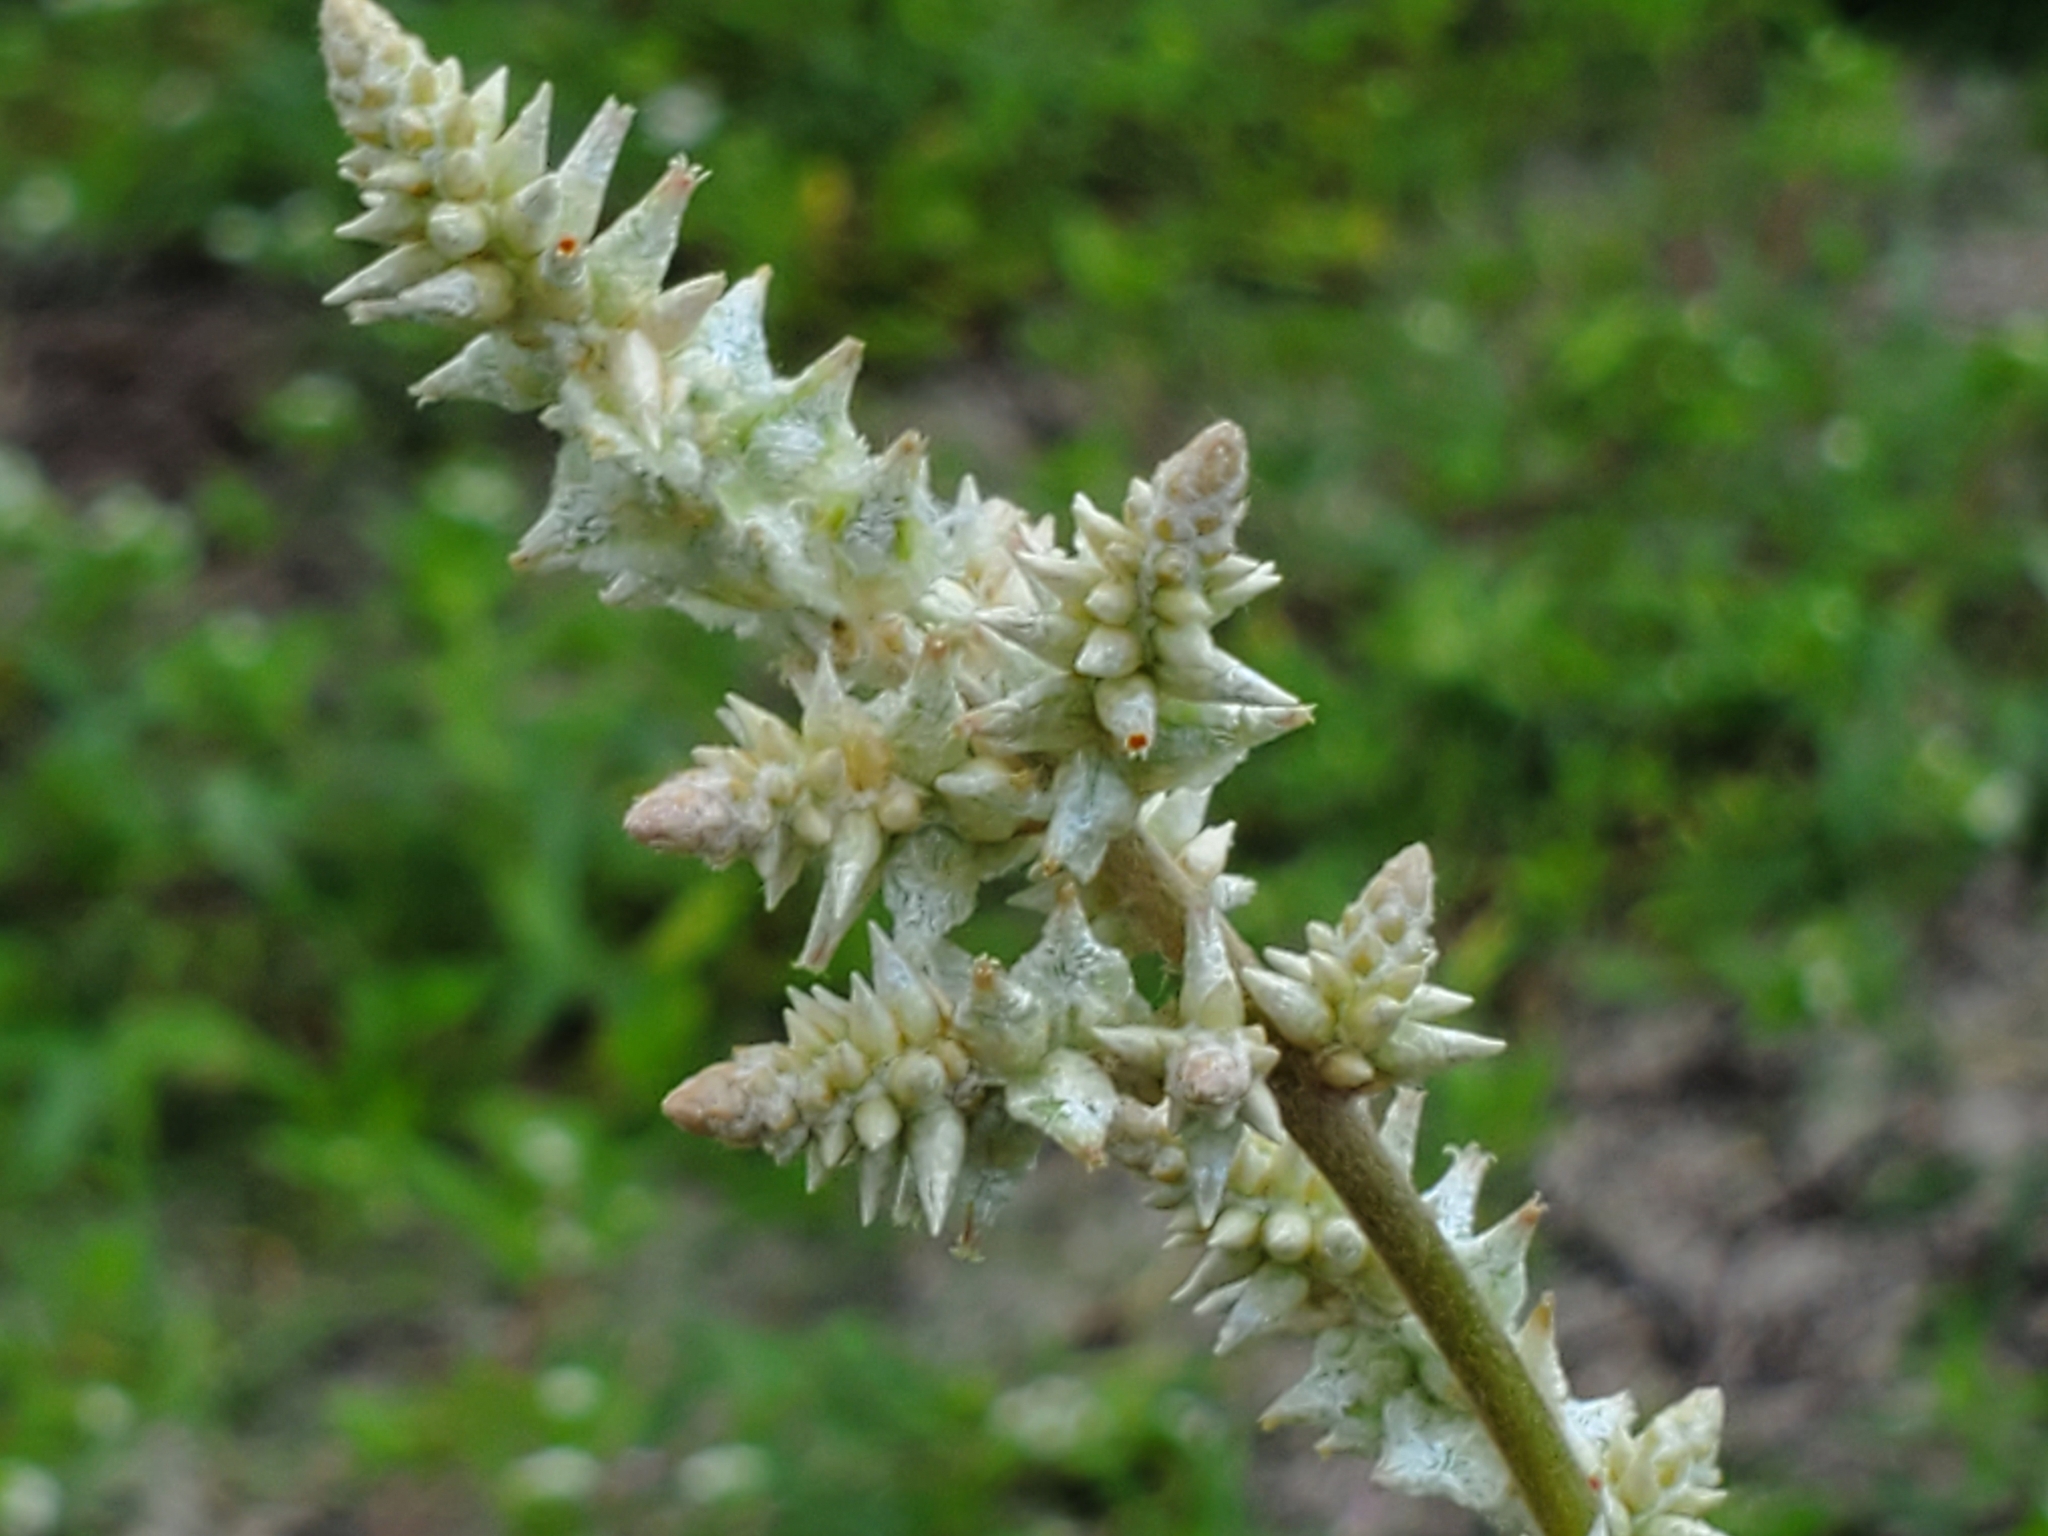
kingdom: Plantae
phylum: Tracheophyta
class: Magnoliopsida
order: Caryophyllales
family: Amaranthaceae
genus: Froelichia
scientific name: Froelichia floridana
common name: Florida snake-cotton
